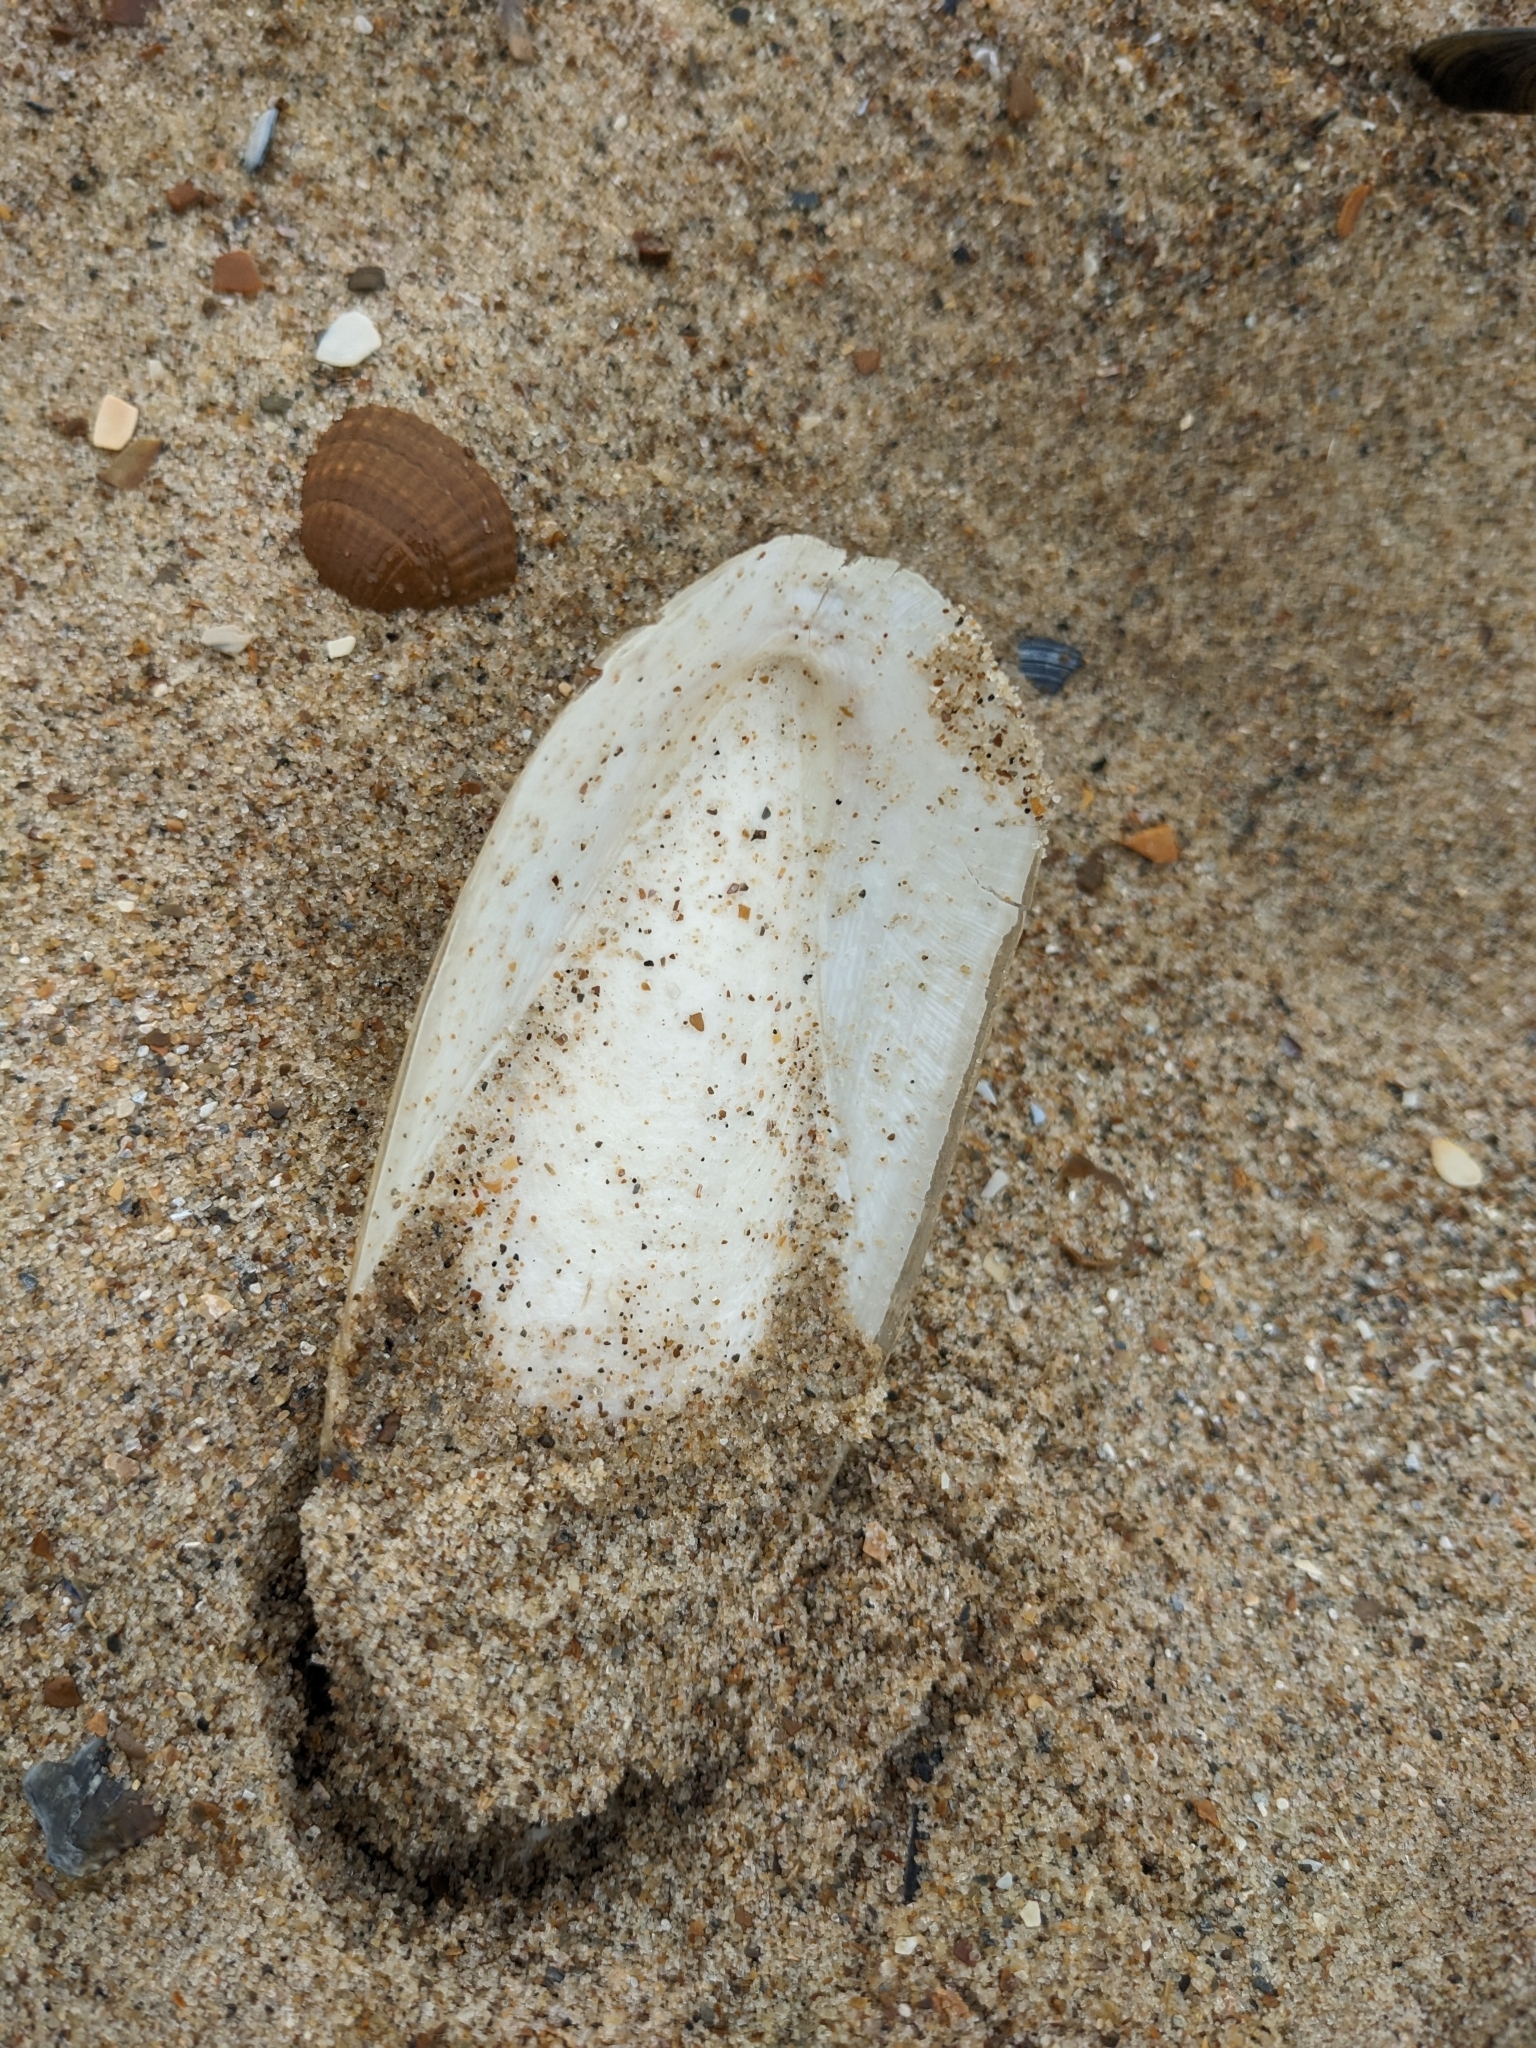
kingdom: Animalia
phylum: Mollusca
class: Cephalopoda
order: Sepiida
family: Sepiidae
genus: Sepia
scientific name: Sepia officinalis
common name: Common cuttlefish
